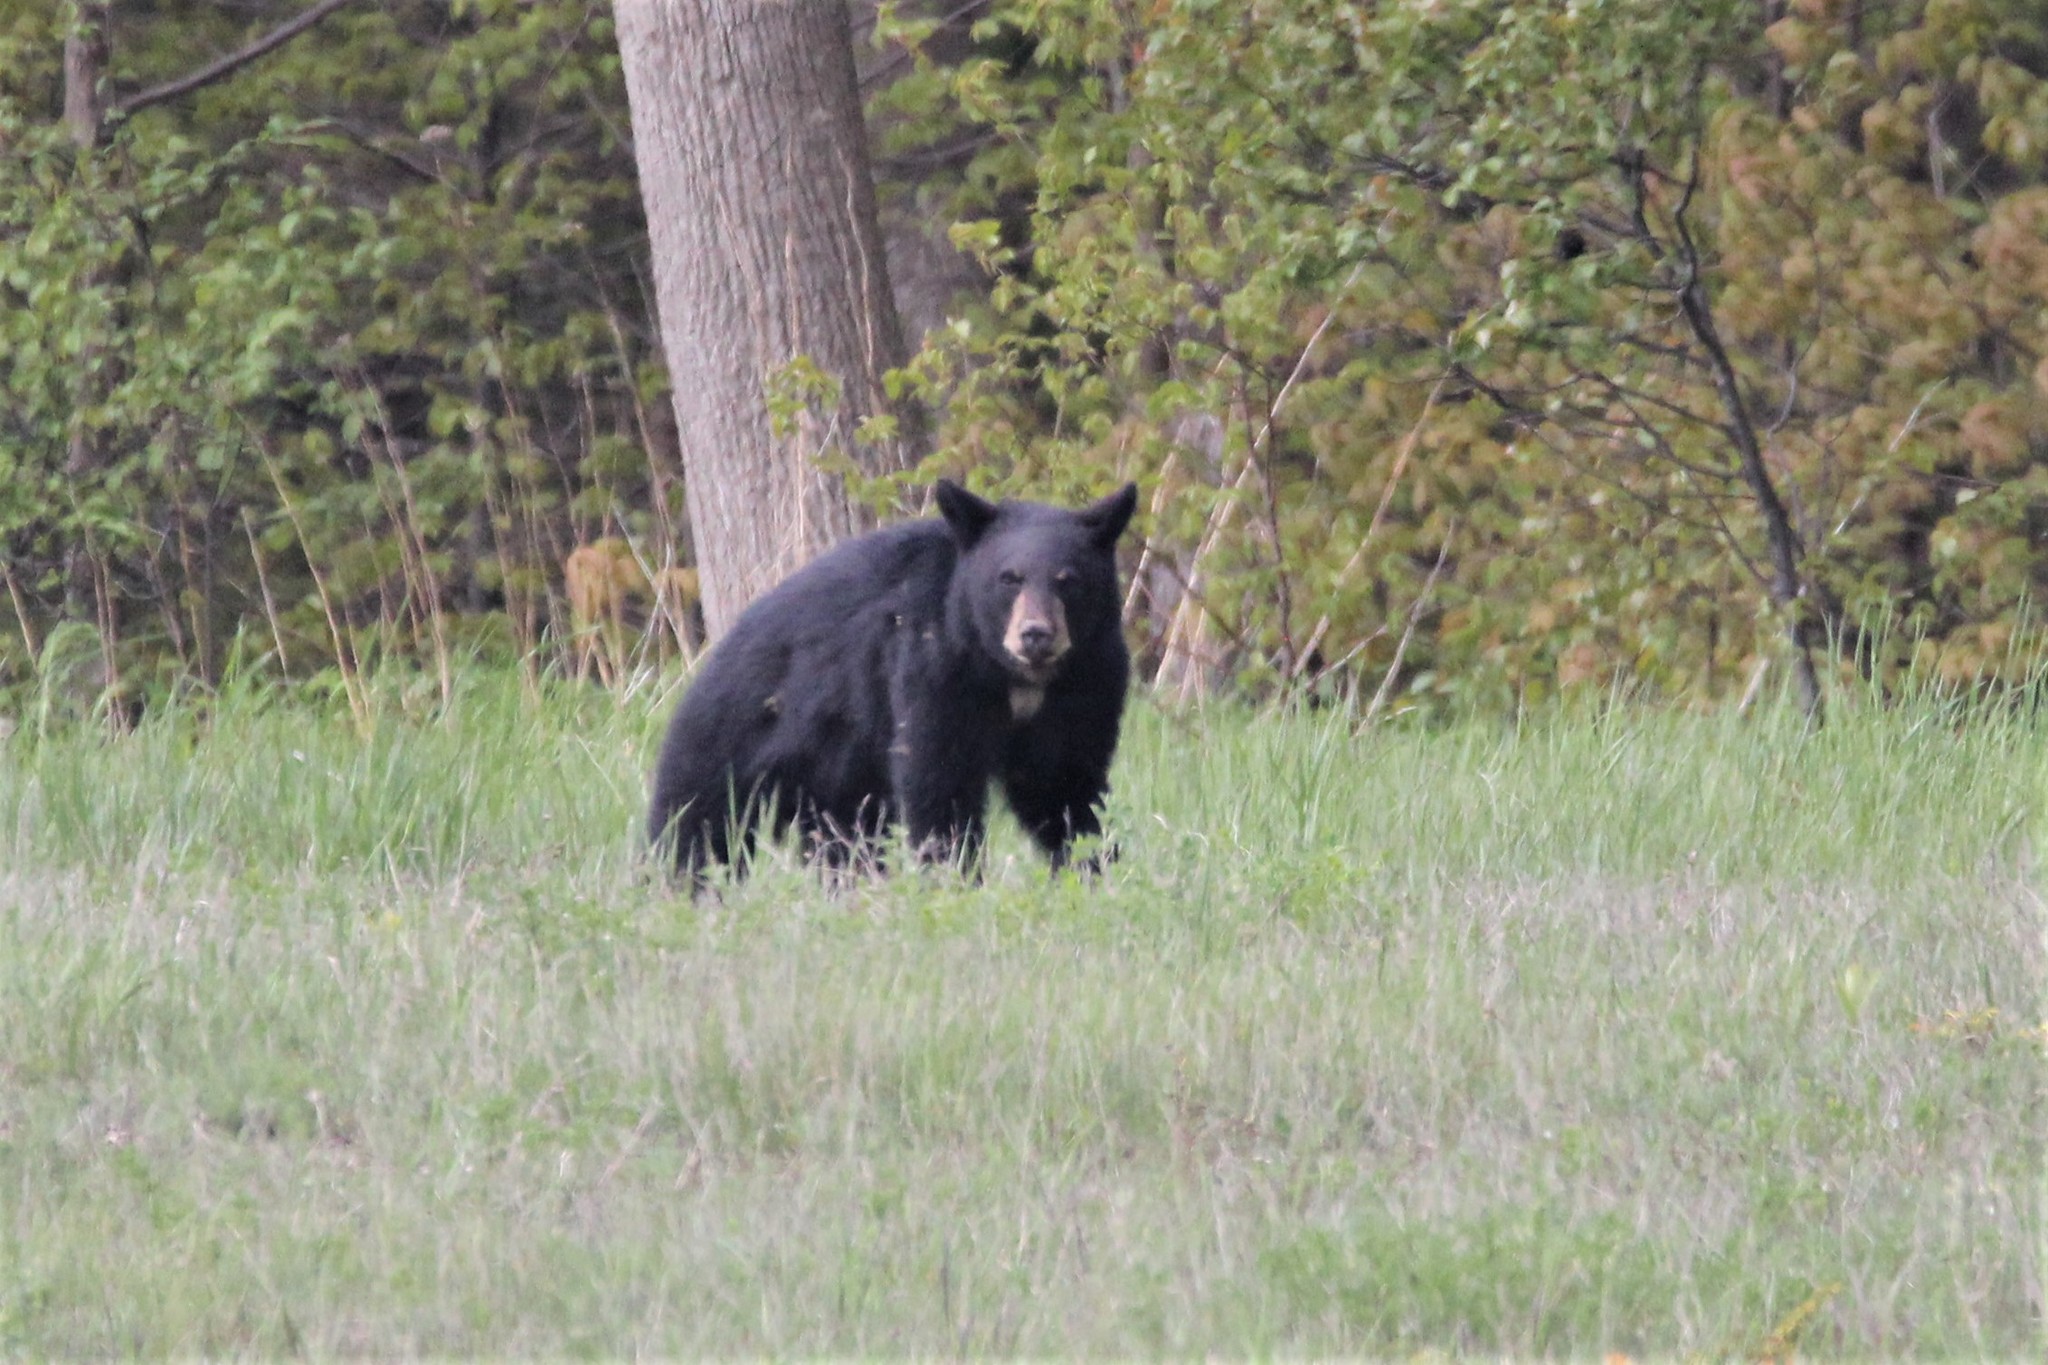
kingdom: Animalia
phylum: Chordata
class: Mammalia
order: Carnivora
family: Ursidae
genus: Ursus
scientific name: Ursus americanus
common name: American black bear
